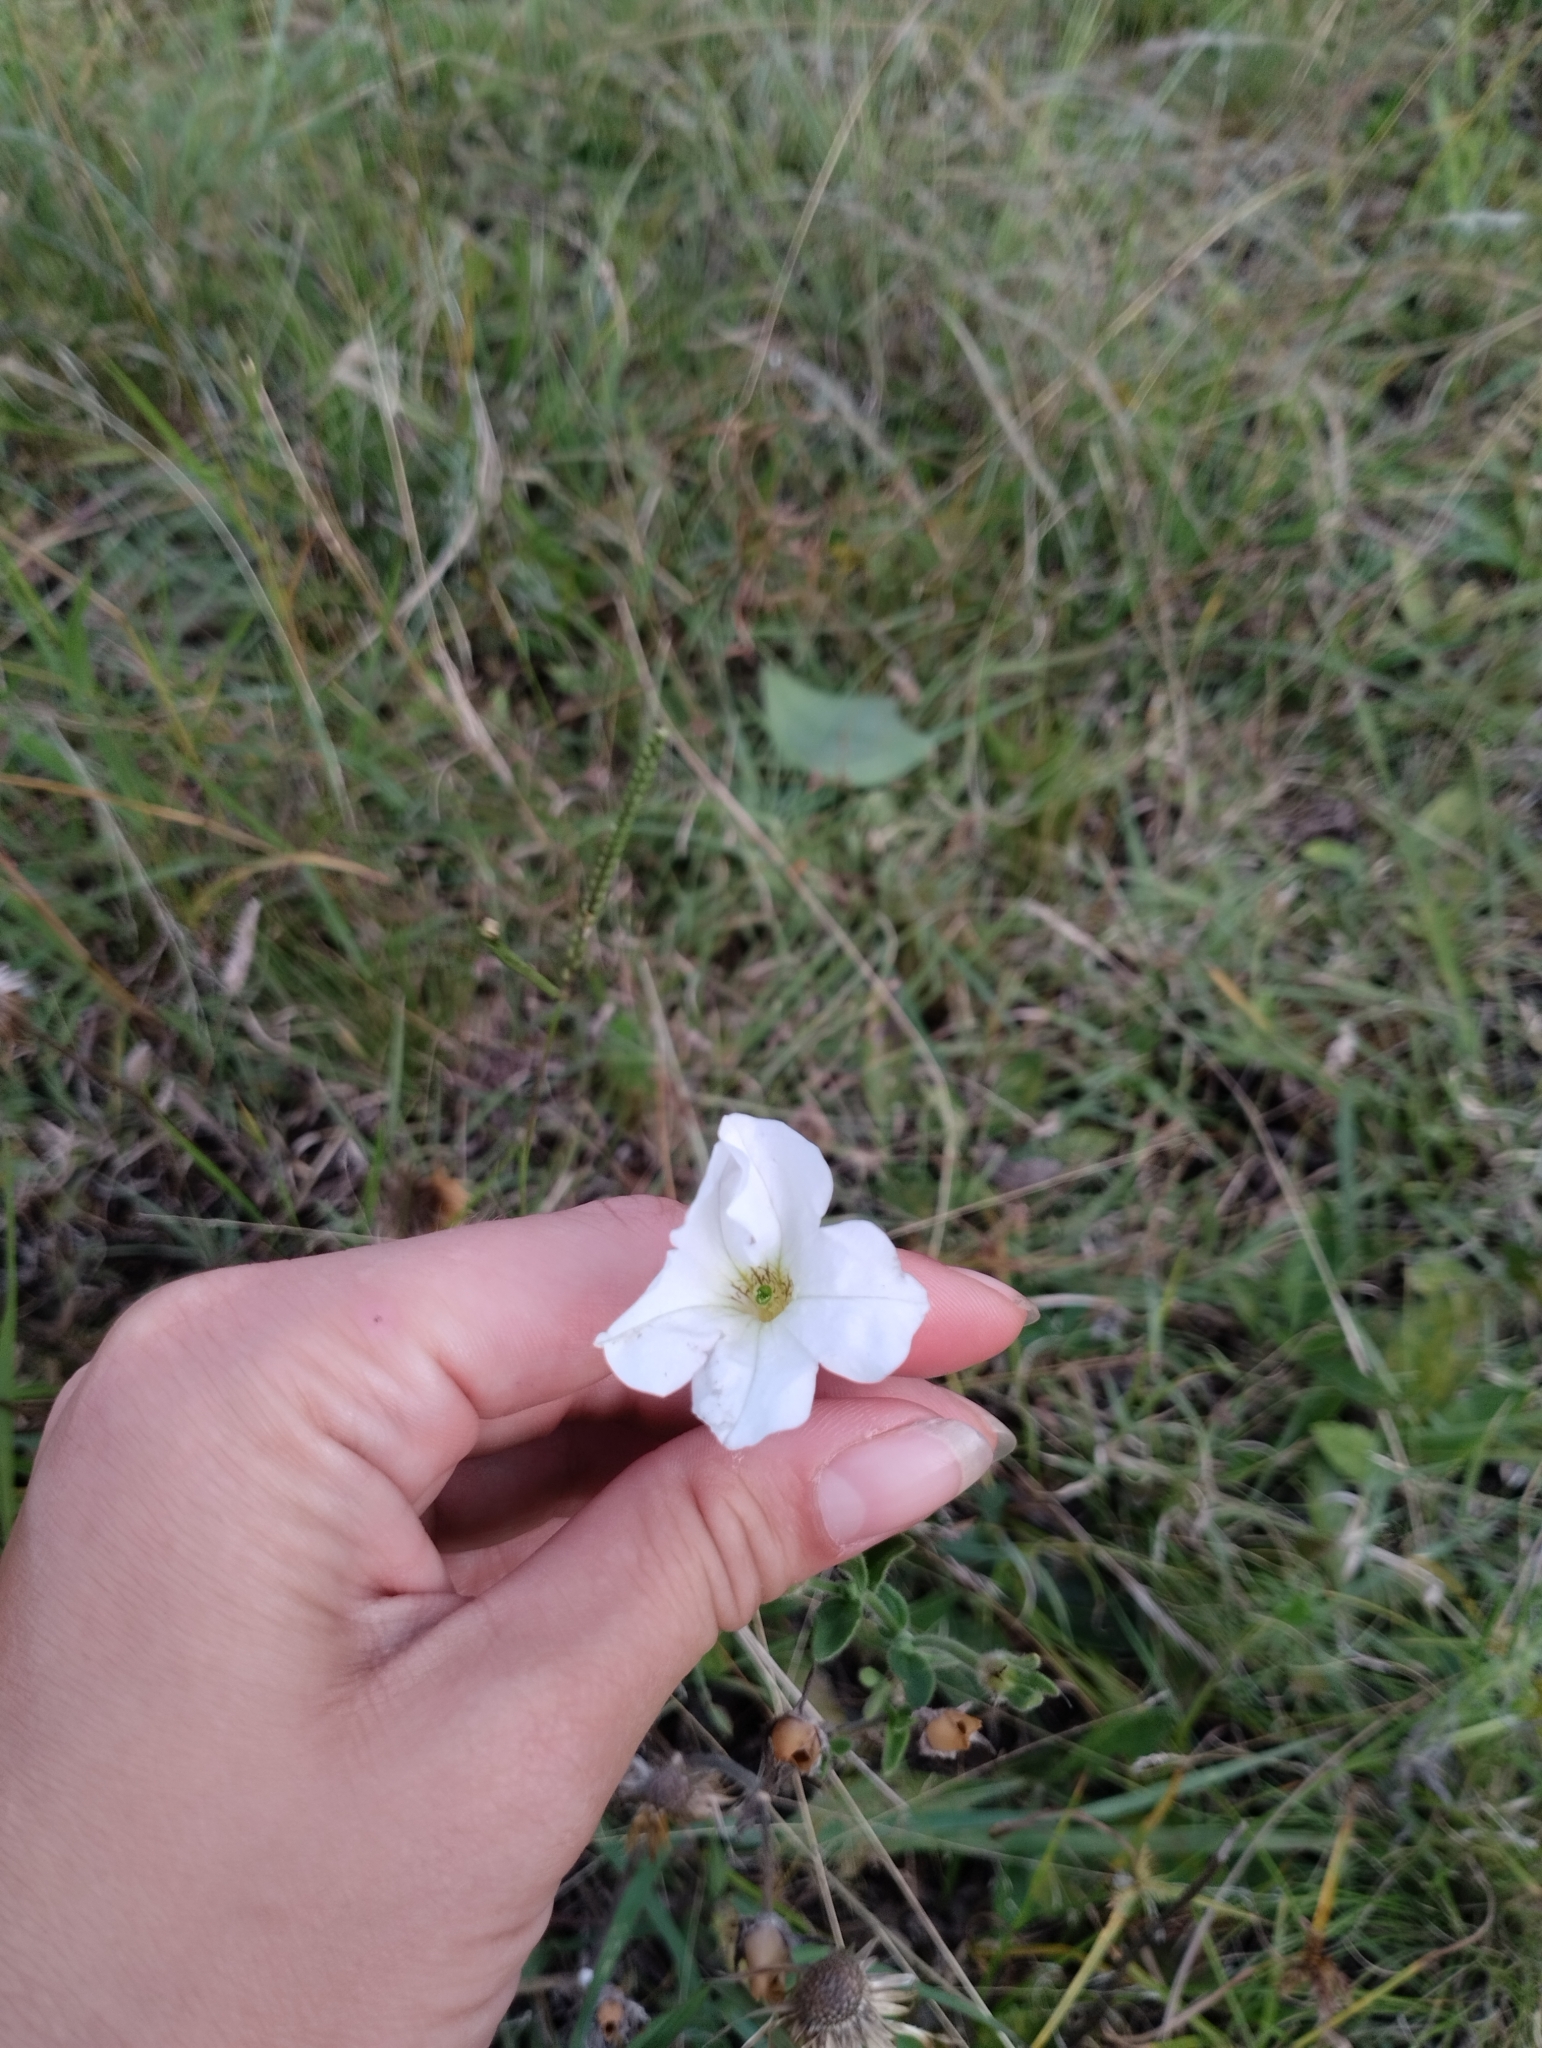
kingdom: Plantae
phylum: Tracheophyta
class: Magnoliopsida
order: Solanales
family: Solanaceae
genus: Petunia
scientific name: Petunia axillaris
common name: Large white petunia
